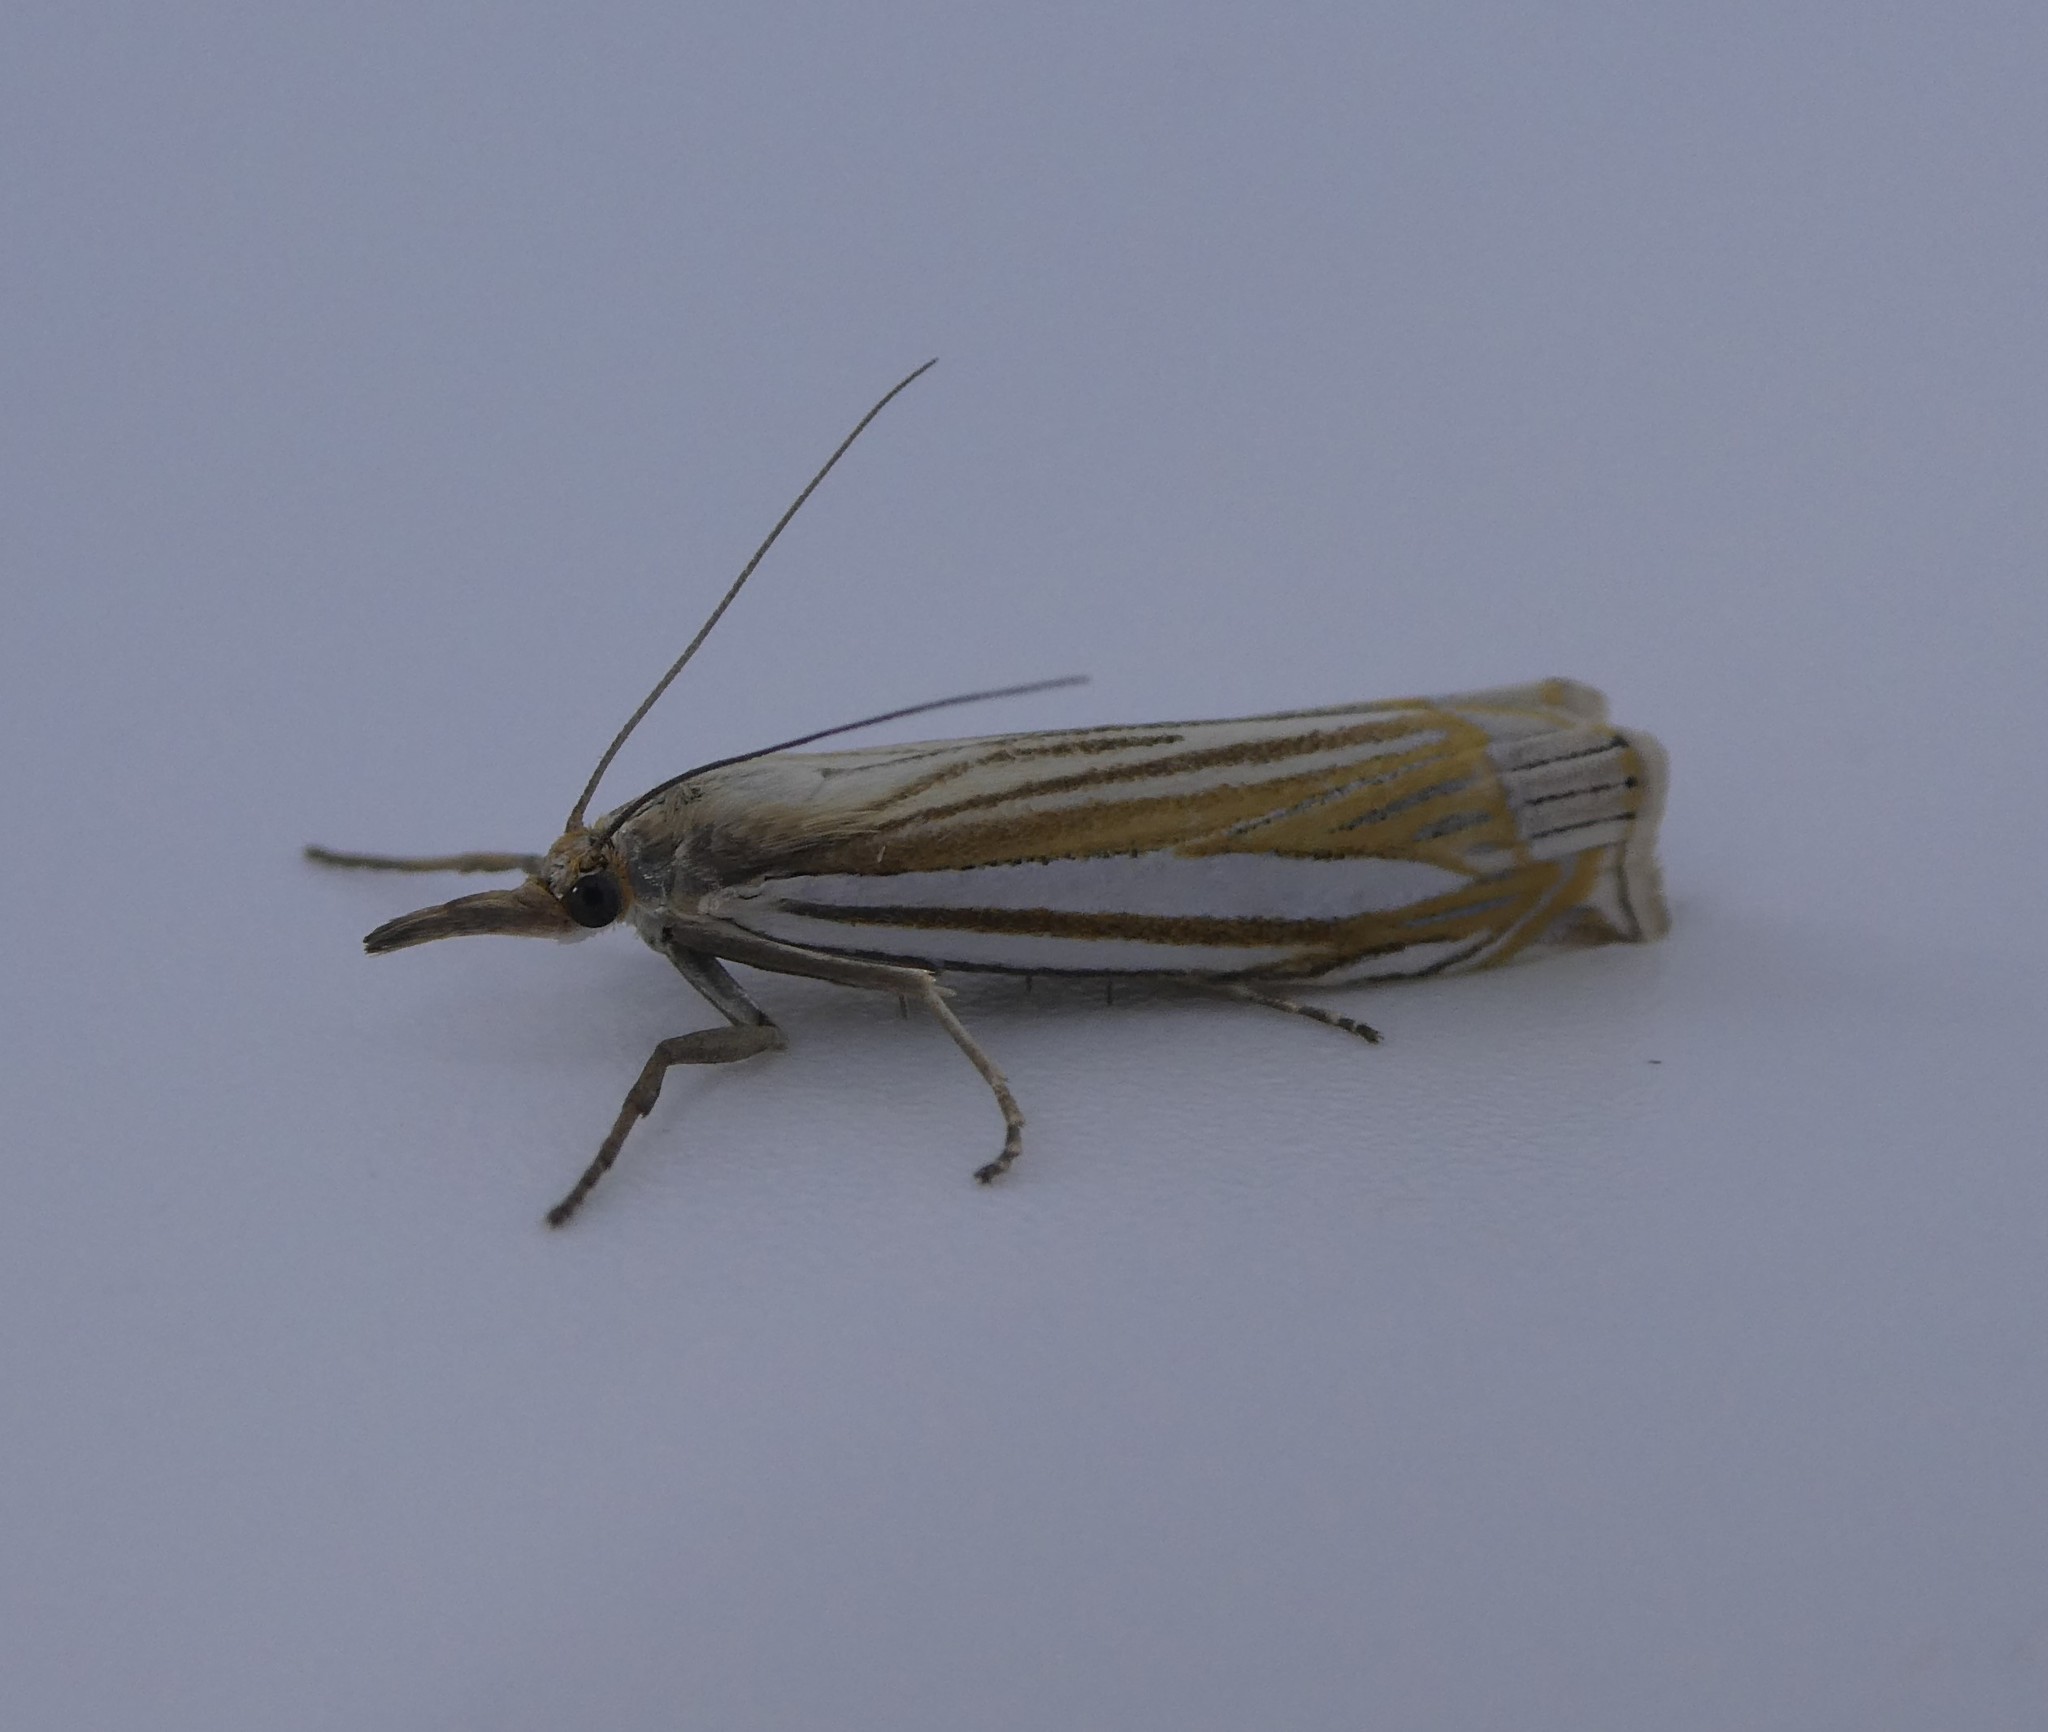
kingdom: Animalia
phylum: Arthropoda
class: Insecta
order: Lepidoptera
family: Crambidae
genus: Crambus
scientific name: Crambus laqueatellus
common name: Eastern grass-veneer
